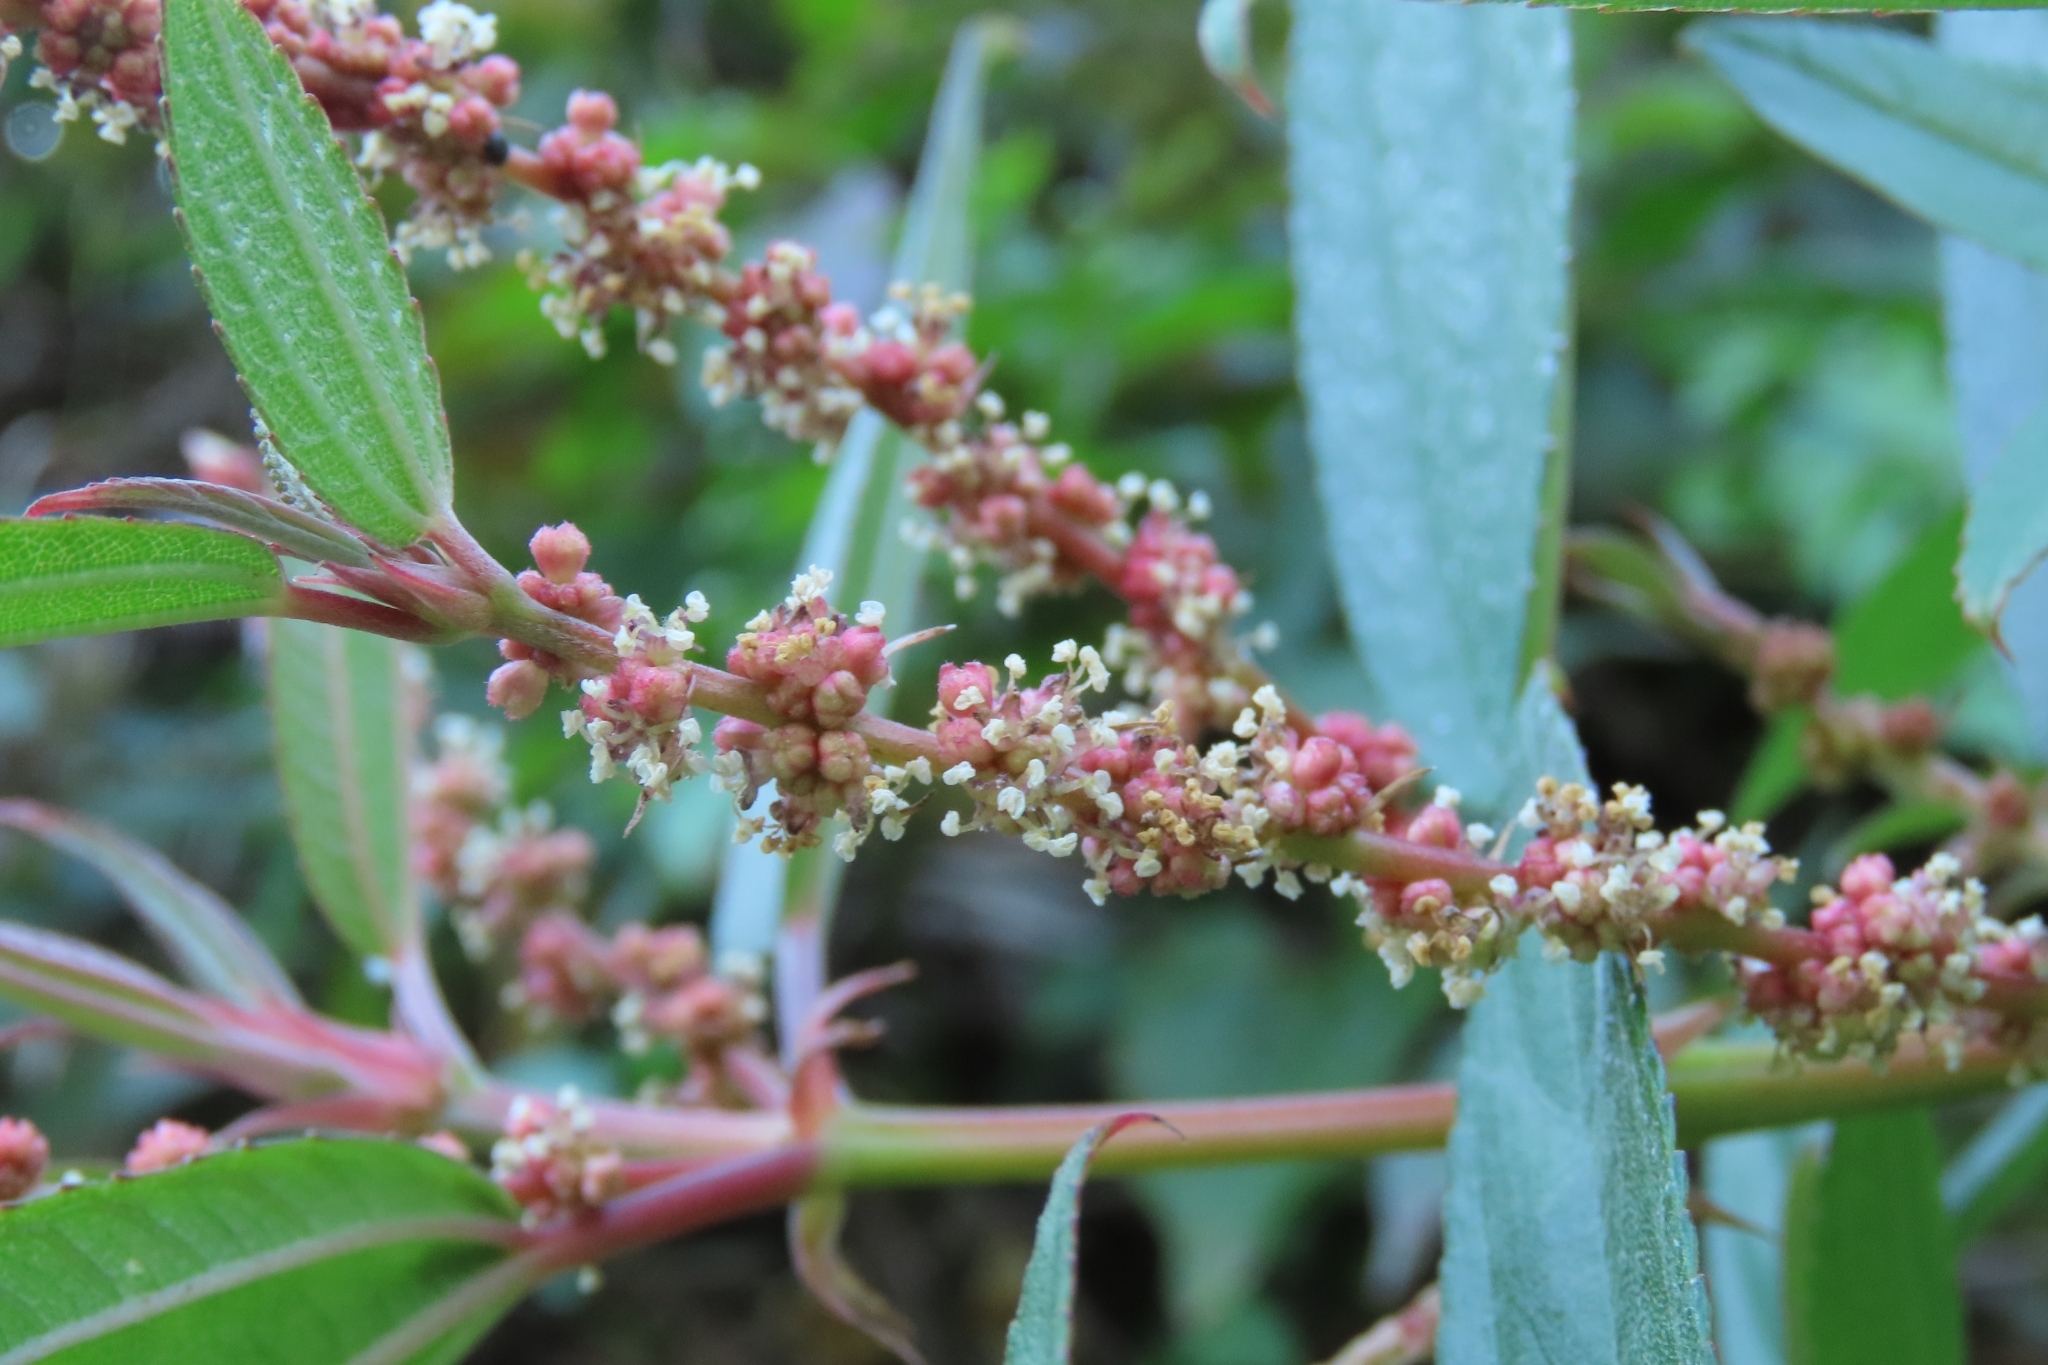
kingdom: Plantae
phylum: Tracheophyta
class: Magnoliopsida
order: Rosales
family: Urticaceae
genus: Boehmeria
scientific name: Boehmeria densiflora
